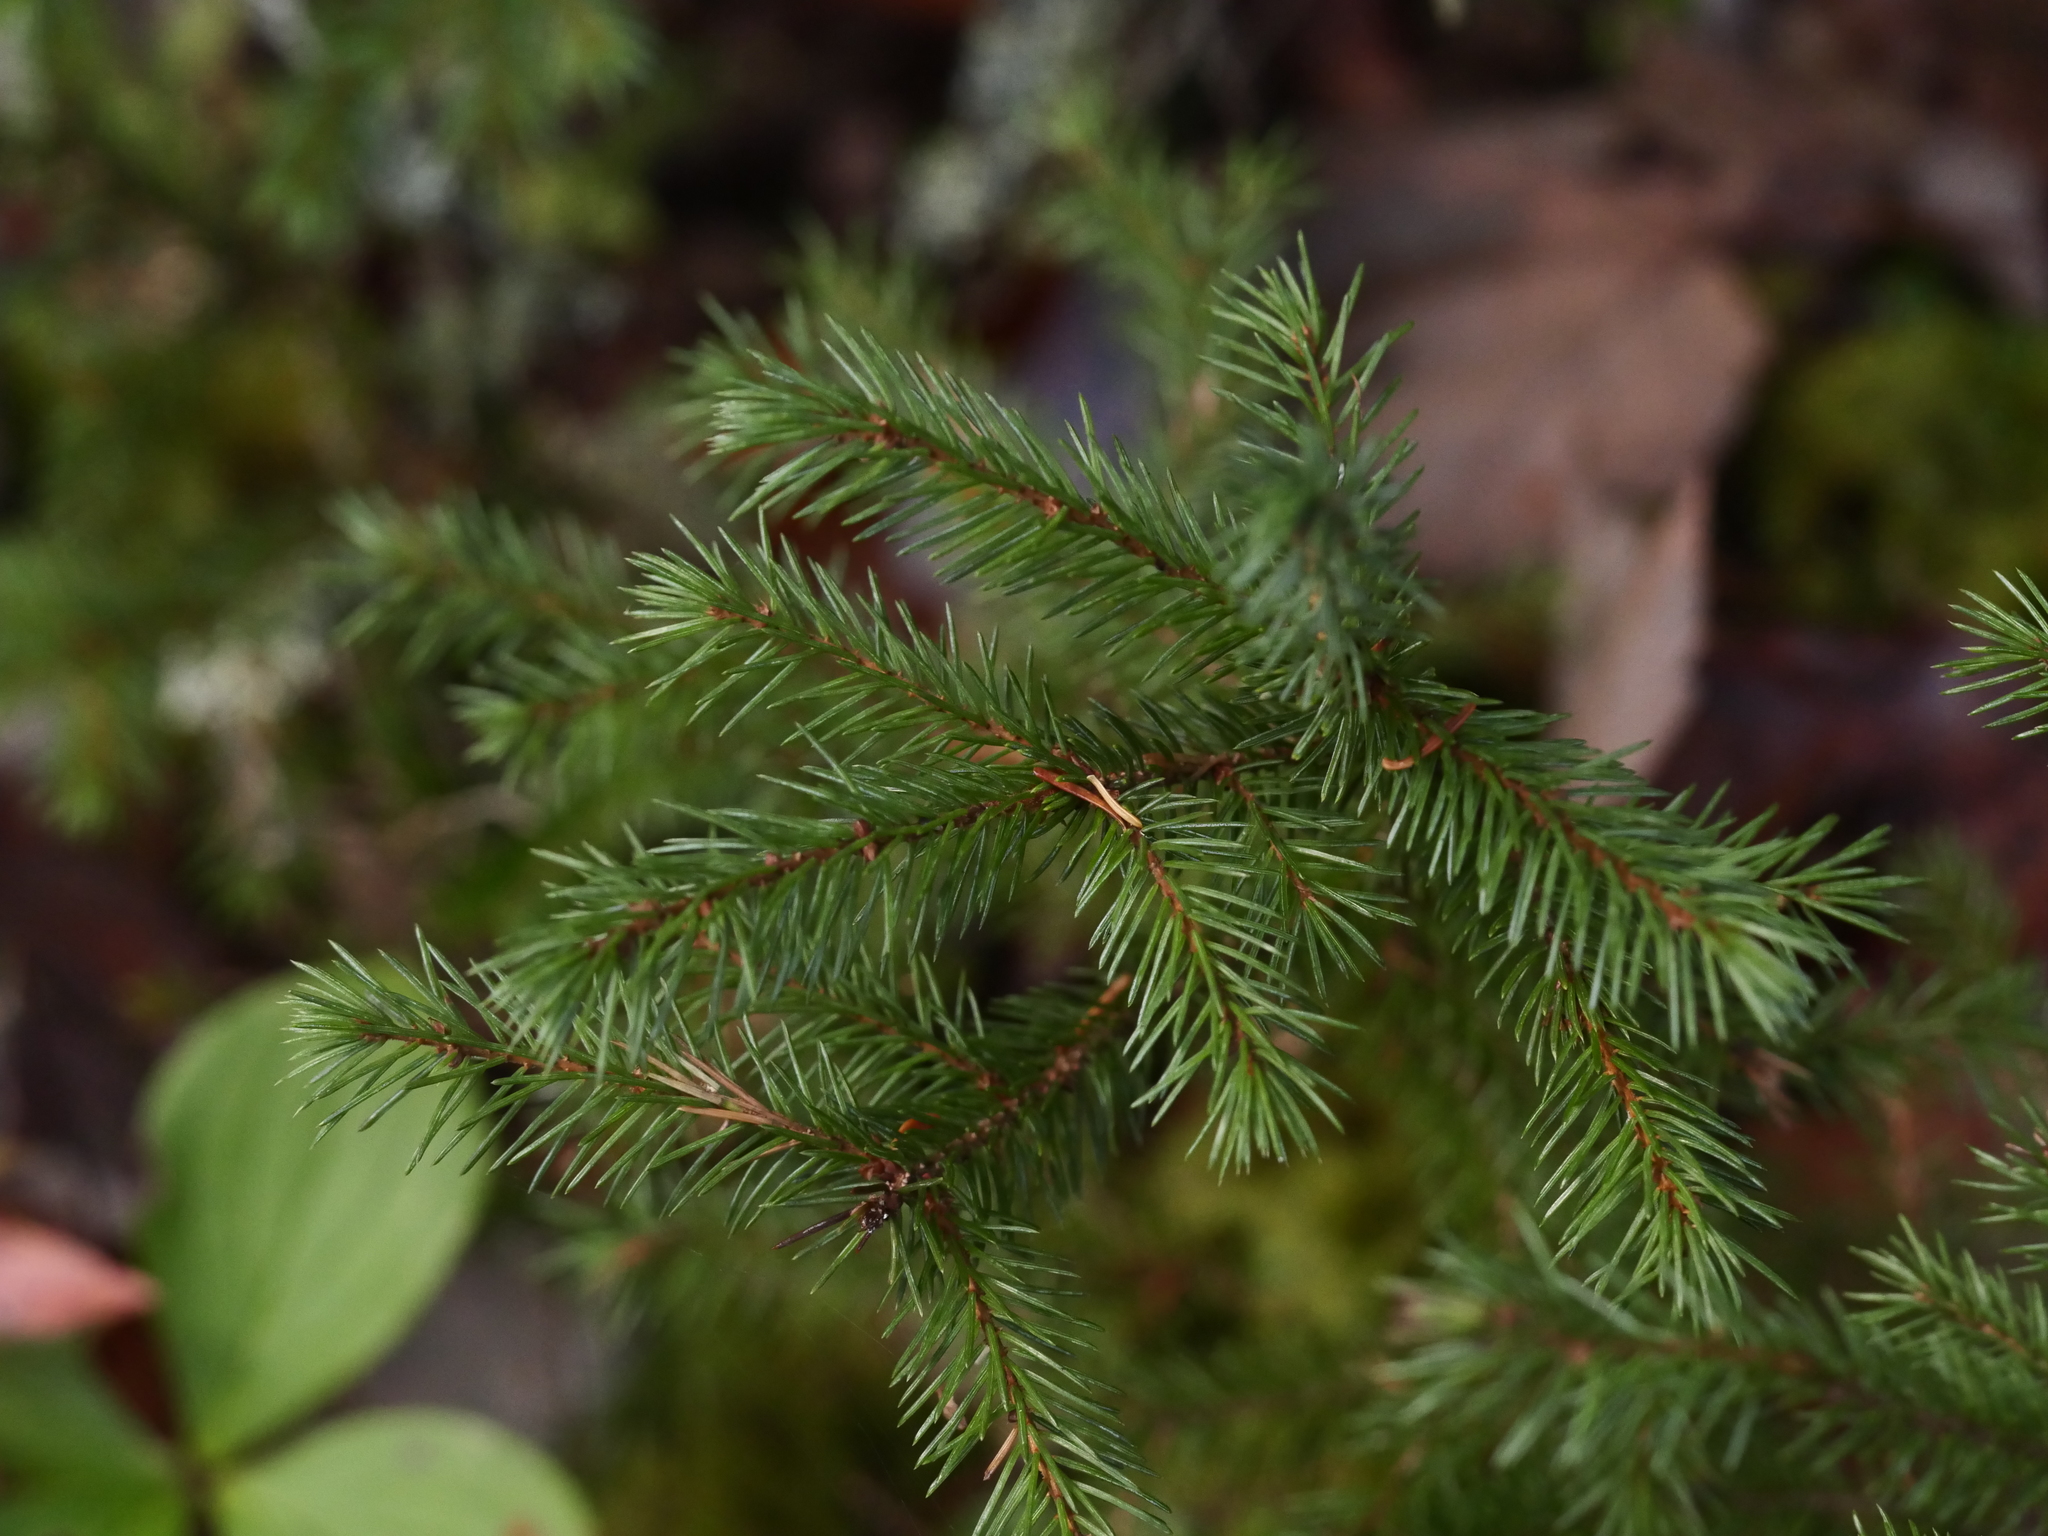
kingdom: Plantae
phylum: Tracheophyta
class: Pinopsida
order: Pinales
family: Pinaceae
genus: Picea
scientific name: Picea rubens
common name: Red spruce
